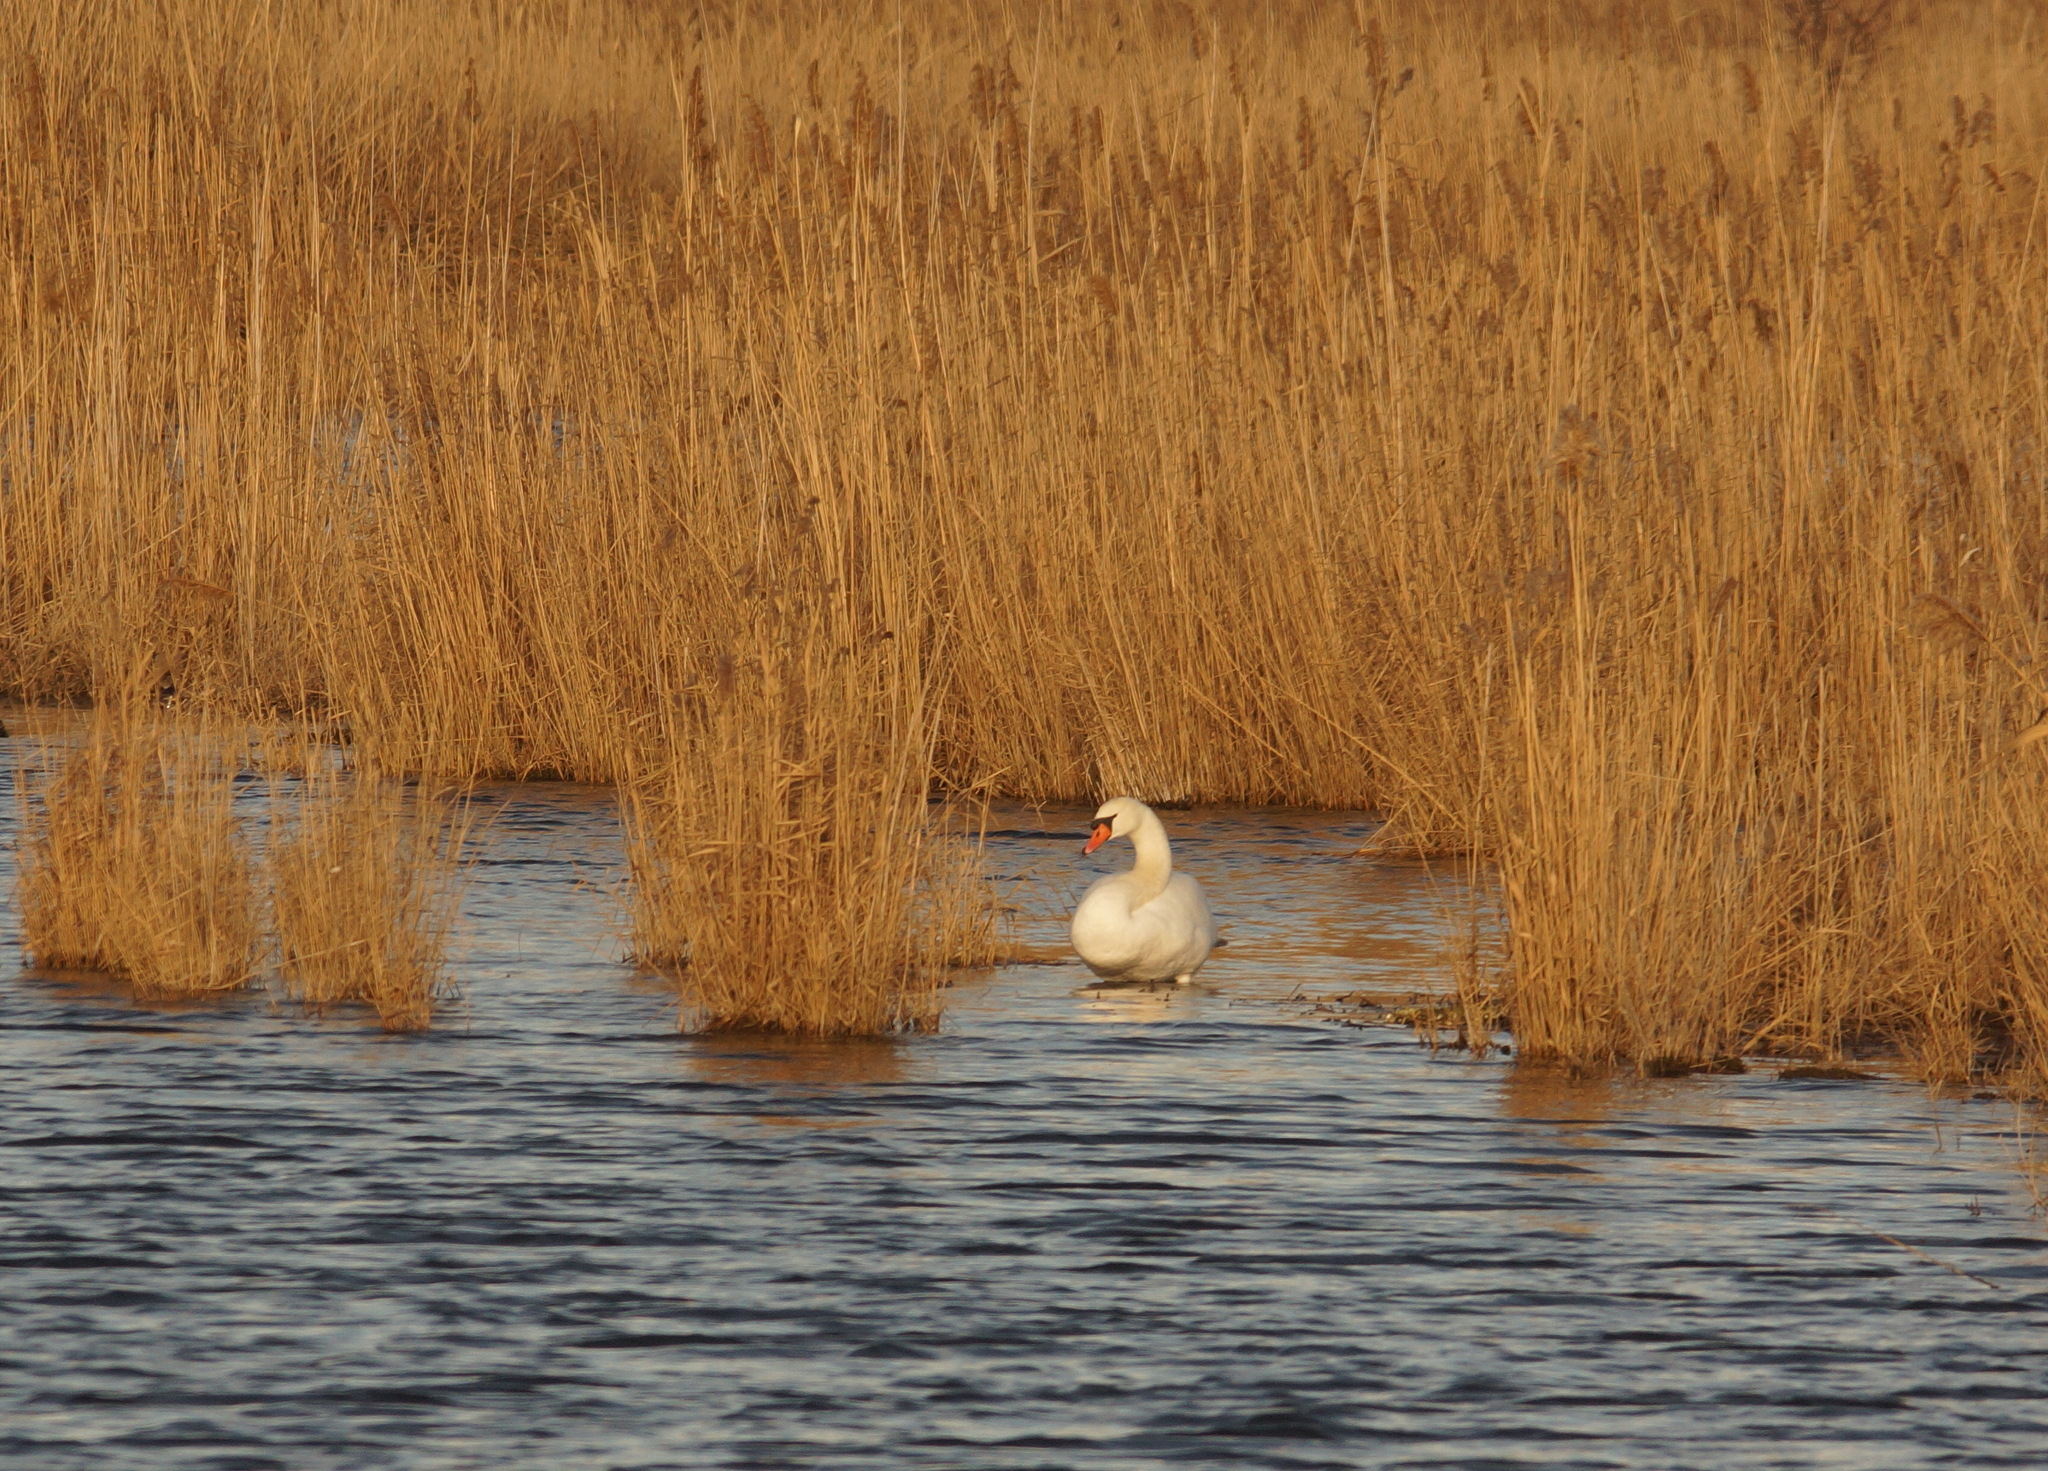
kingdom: Animalia
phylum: Chordata
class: Aves
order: Anseriformes
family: Anatidae
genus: Cygnus
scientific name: Cygnus olor
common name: Mute swan
